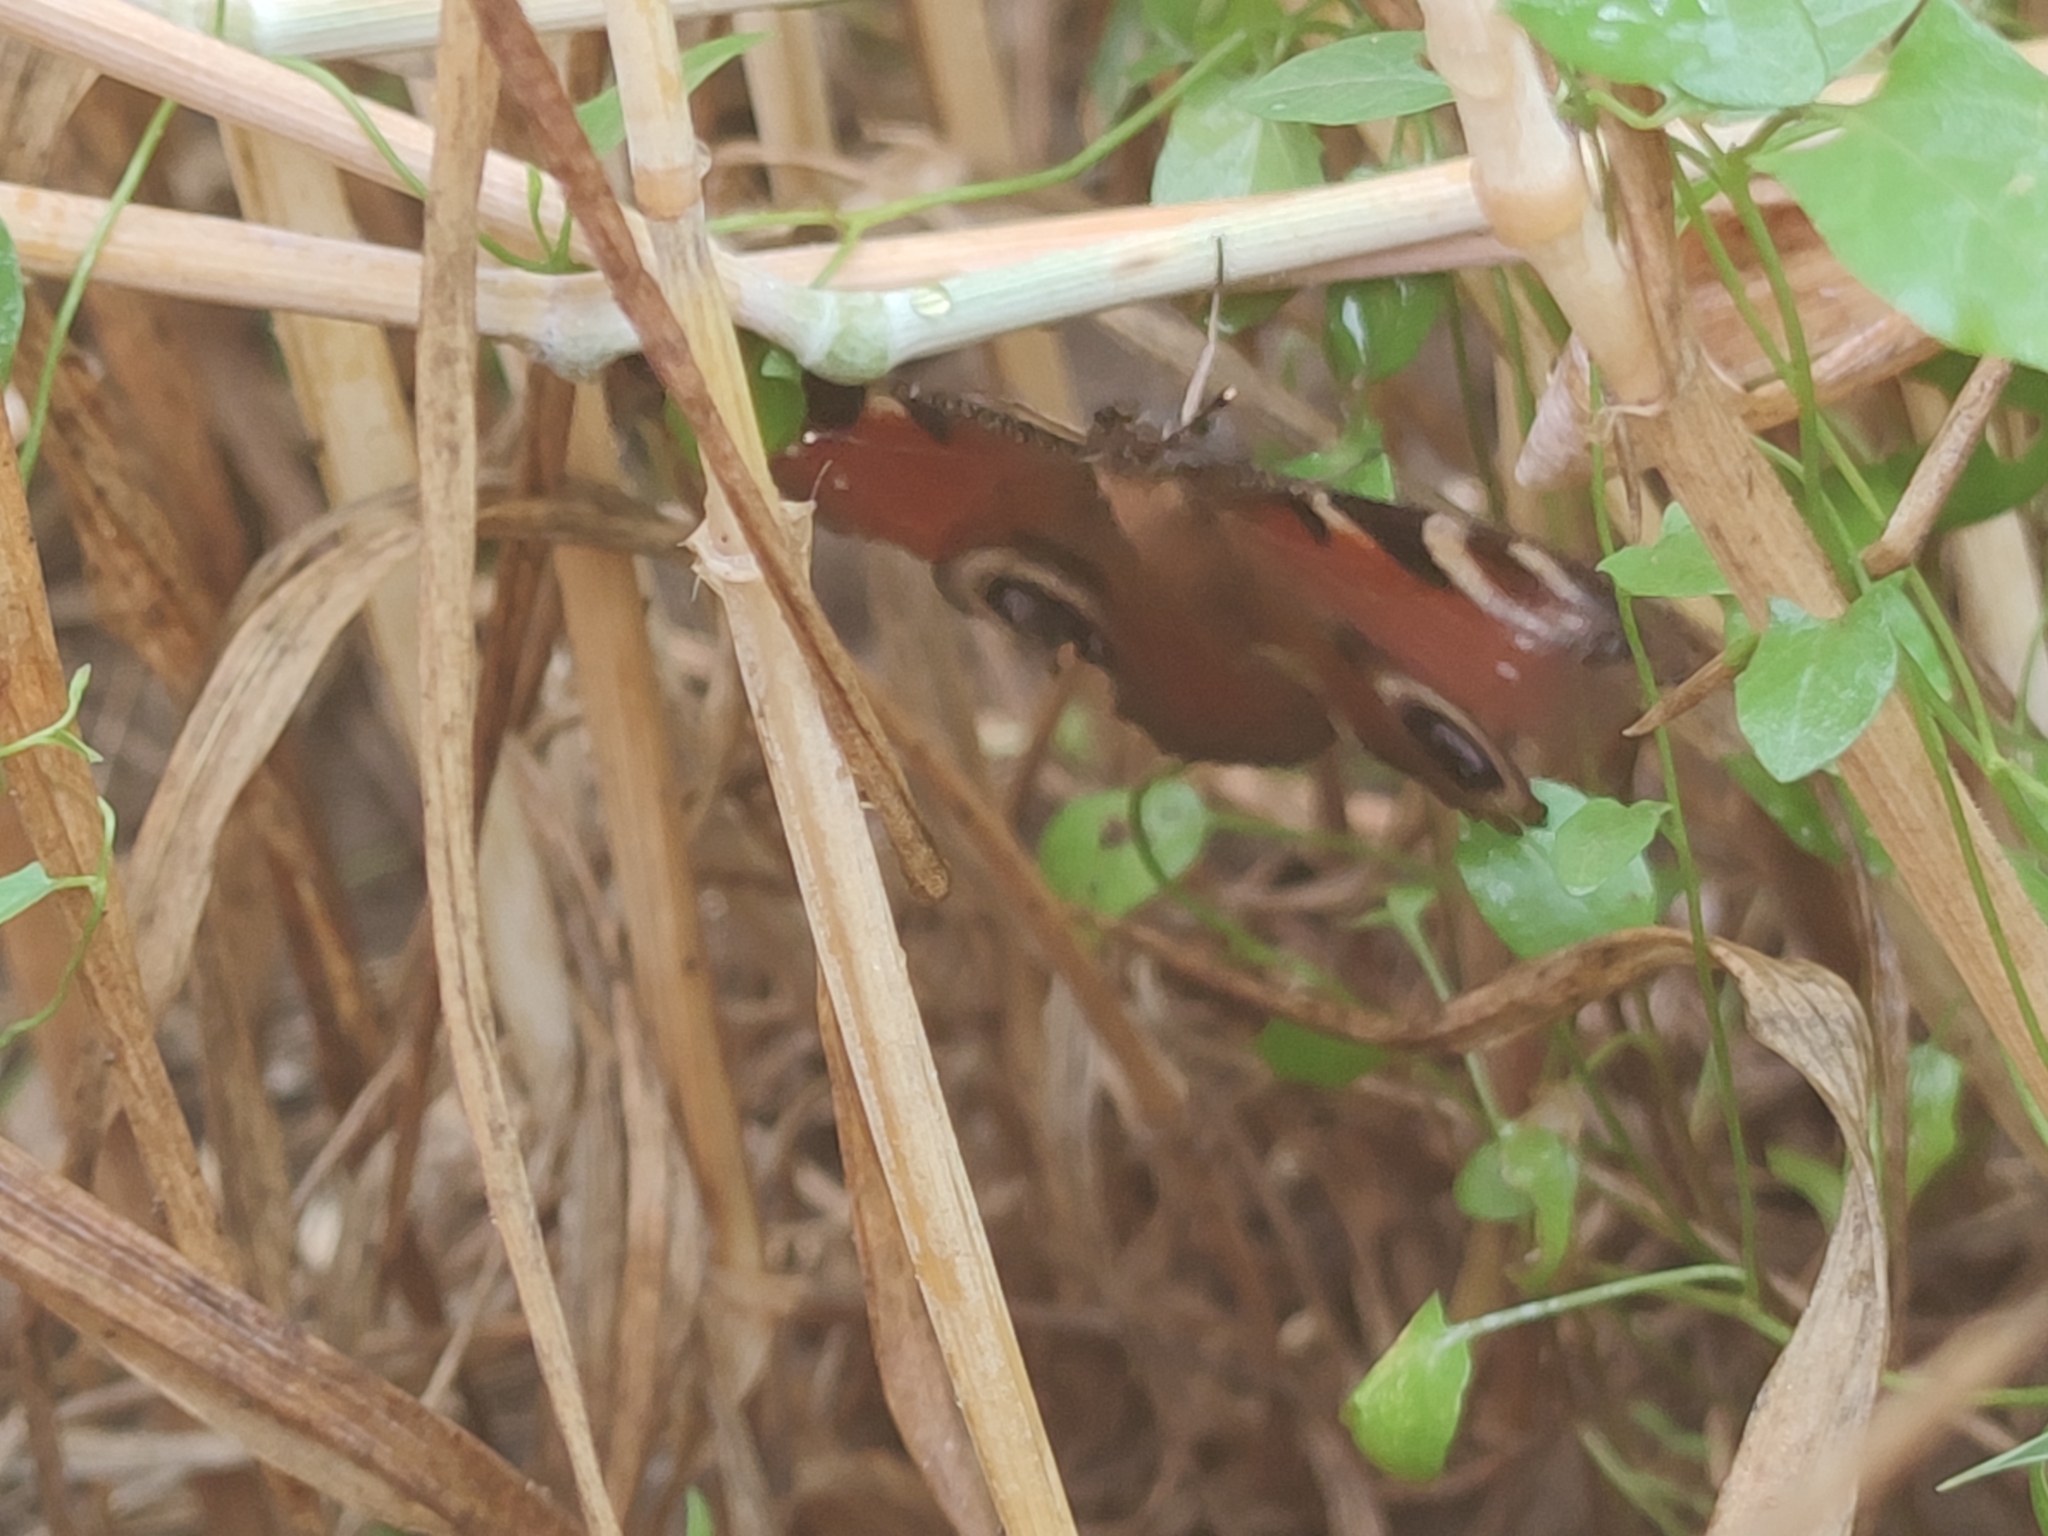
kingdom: Animalia
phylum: Arthropoda
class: Insecta
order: Lepidoptera
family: Nymphalidae
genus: Aglais
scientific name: Aglais io
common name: Peacock
